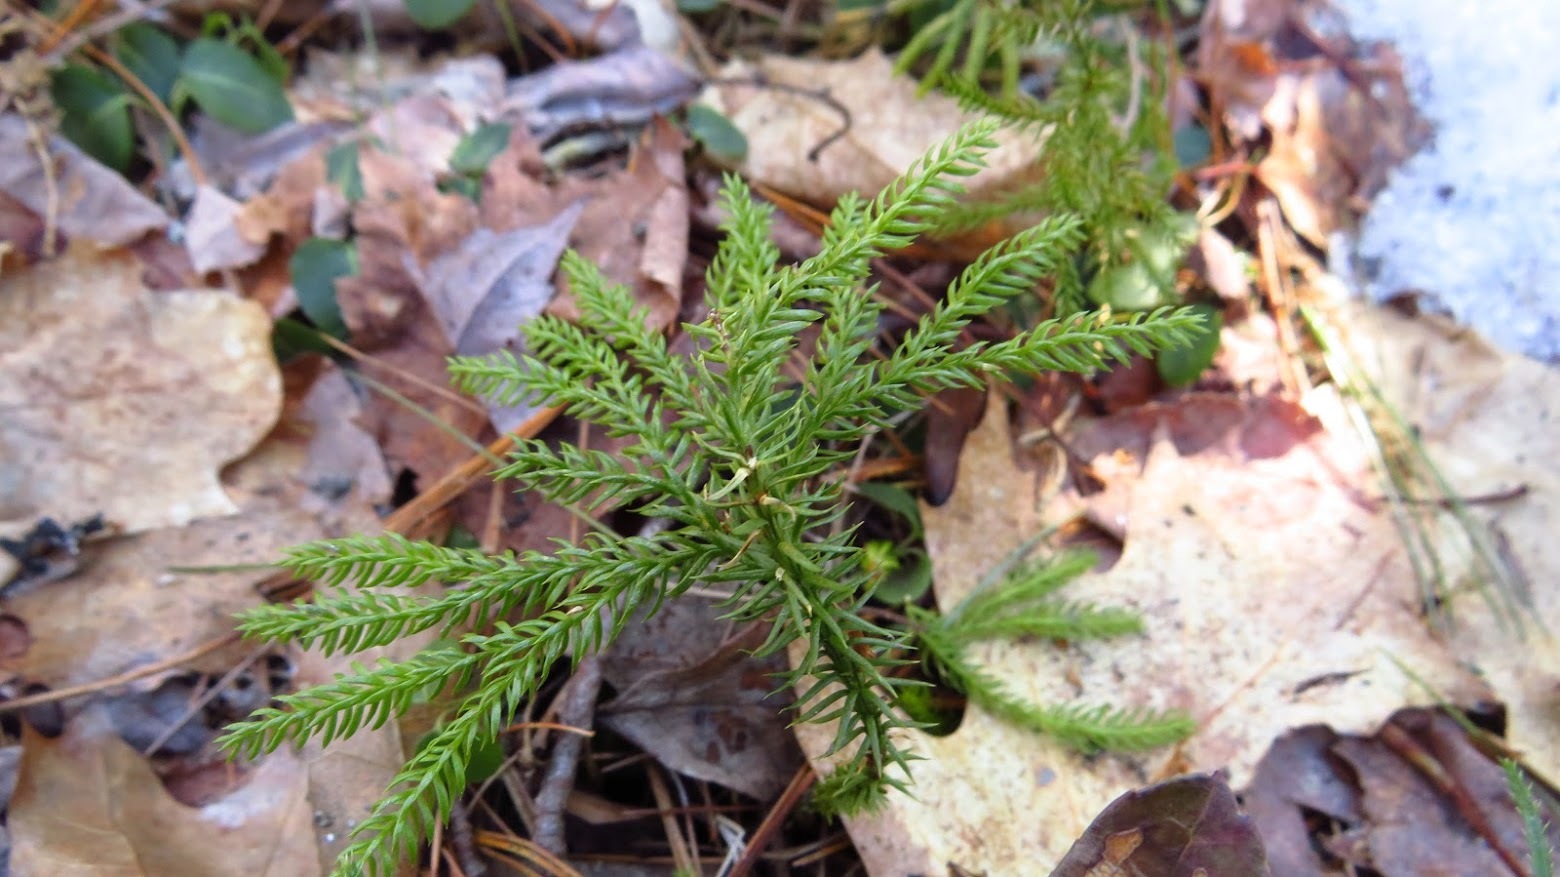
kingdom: Plantae
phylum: Tracheophyta
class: Lycopodiopsida
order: Lycopodiales
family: Lycopodiaceae
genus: Dendrolycopodium
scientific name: Dendrolycopodium dendroideum
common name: Northern tree-clubmoss
